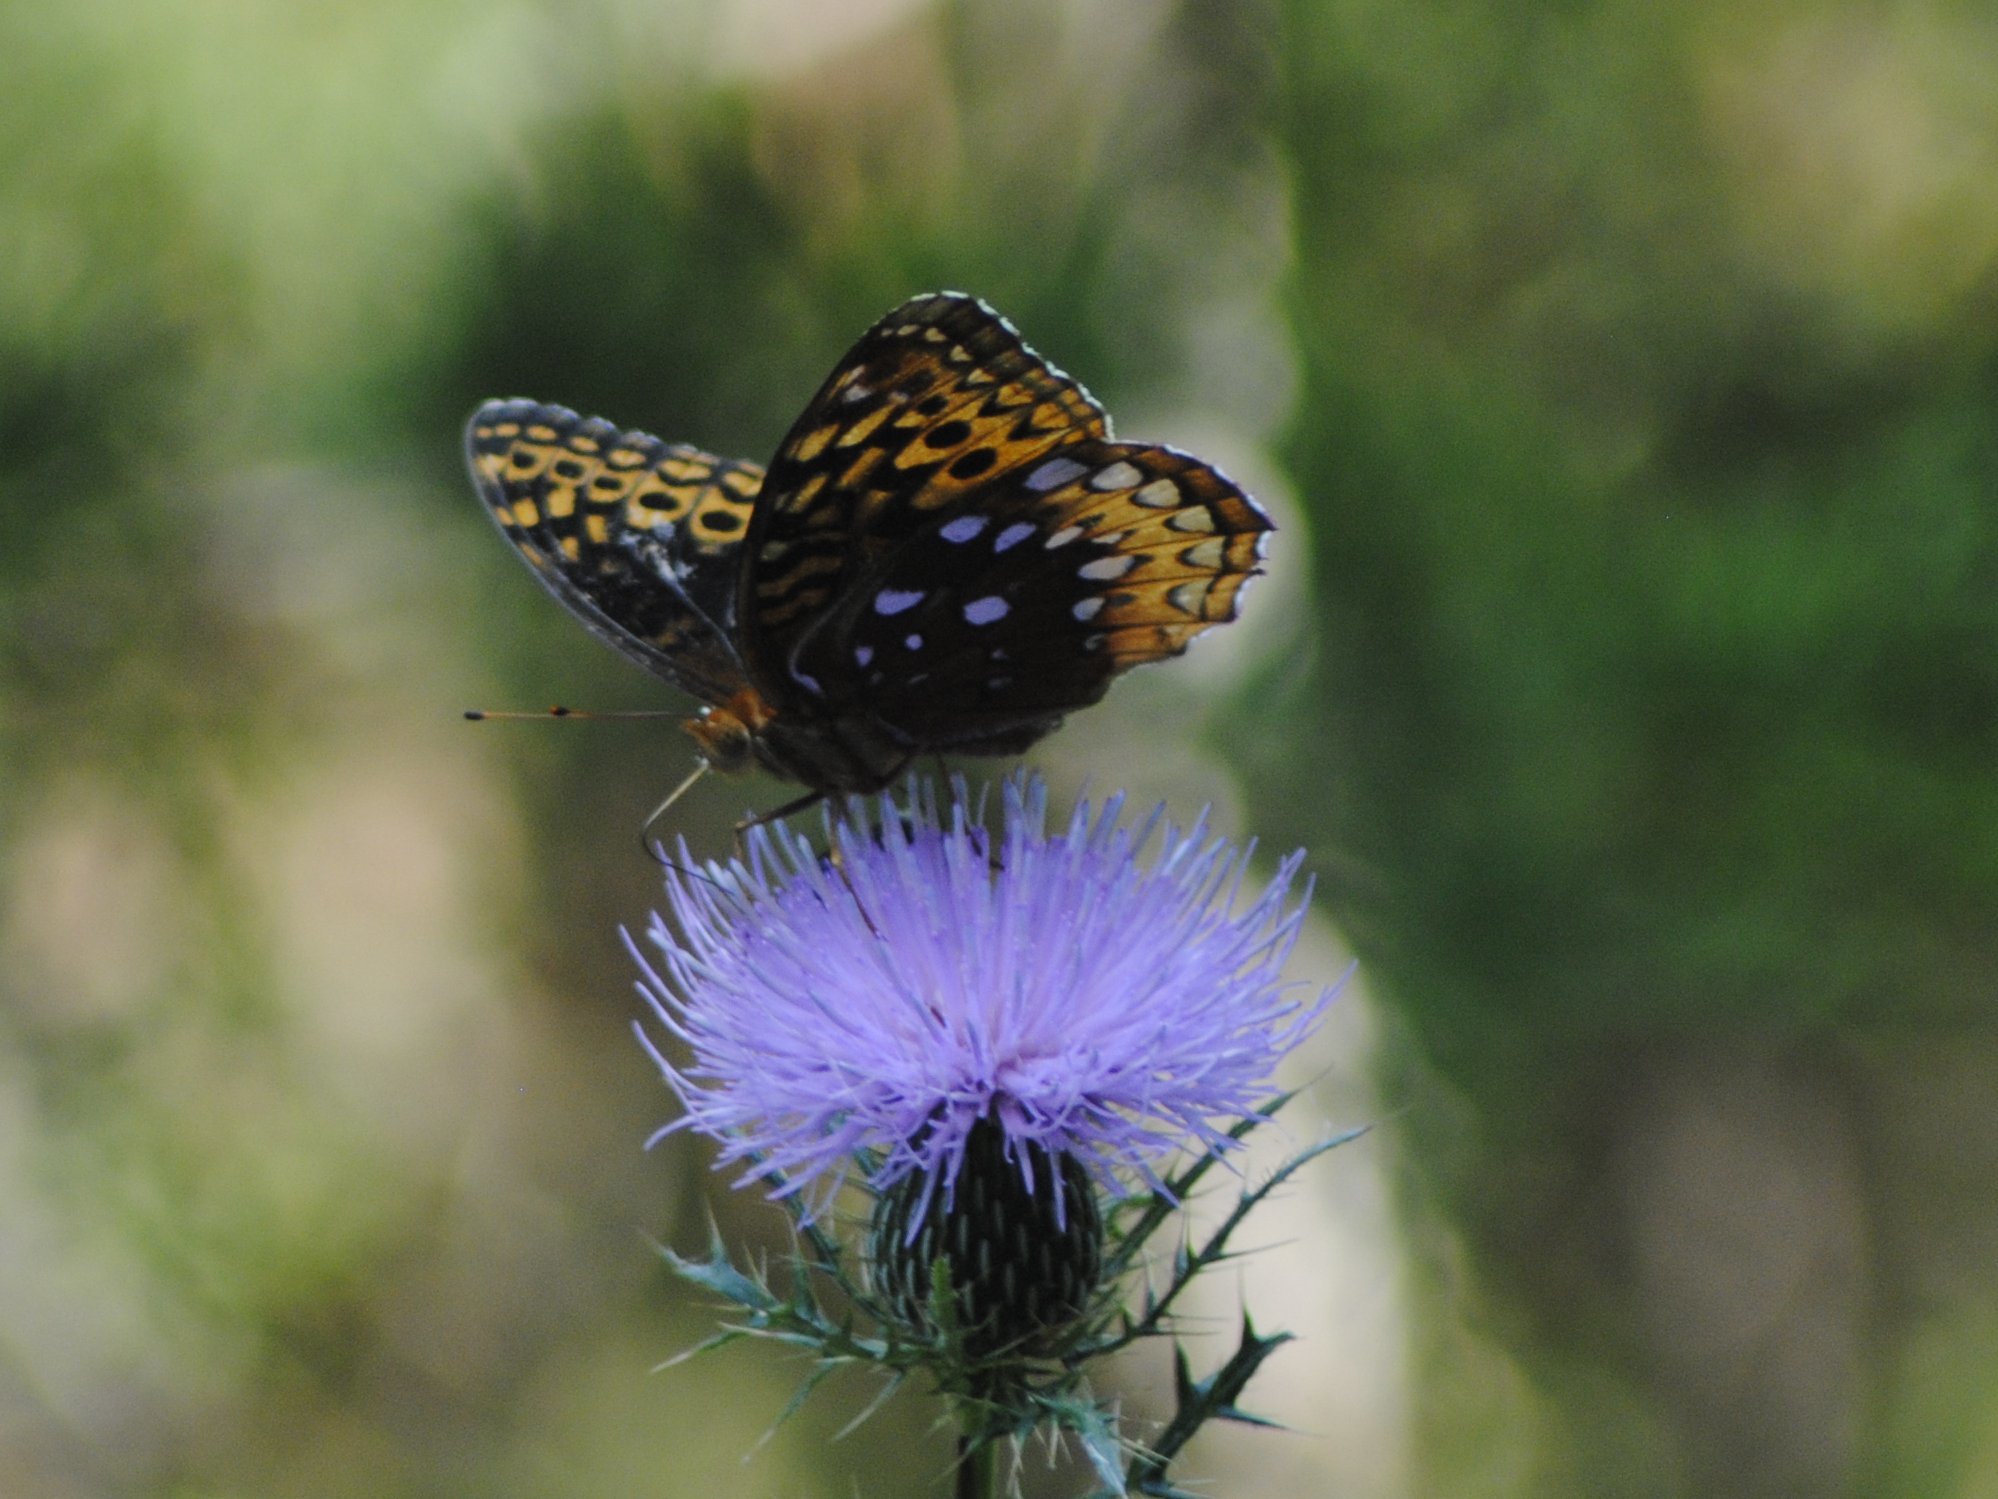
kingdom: Animalia
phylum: Arthropoda
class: Insecta
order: Lepidoptera
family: Nymphalidae
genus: Speyeria
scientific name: Speyeria cybele
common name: Great spangled fritillary
